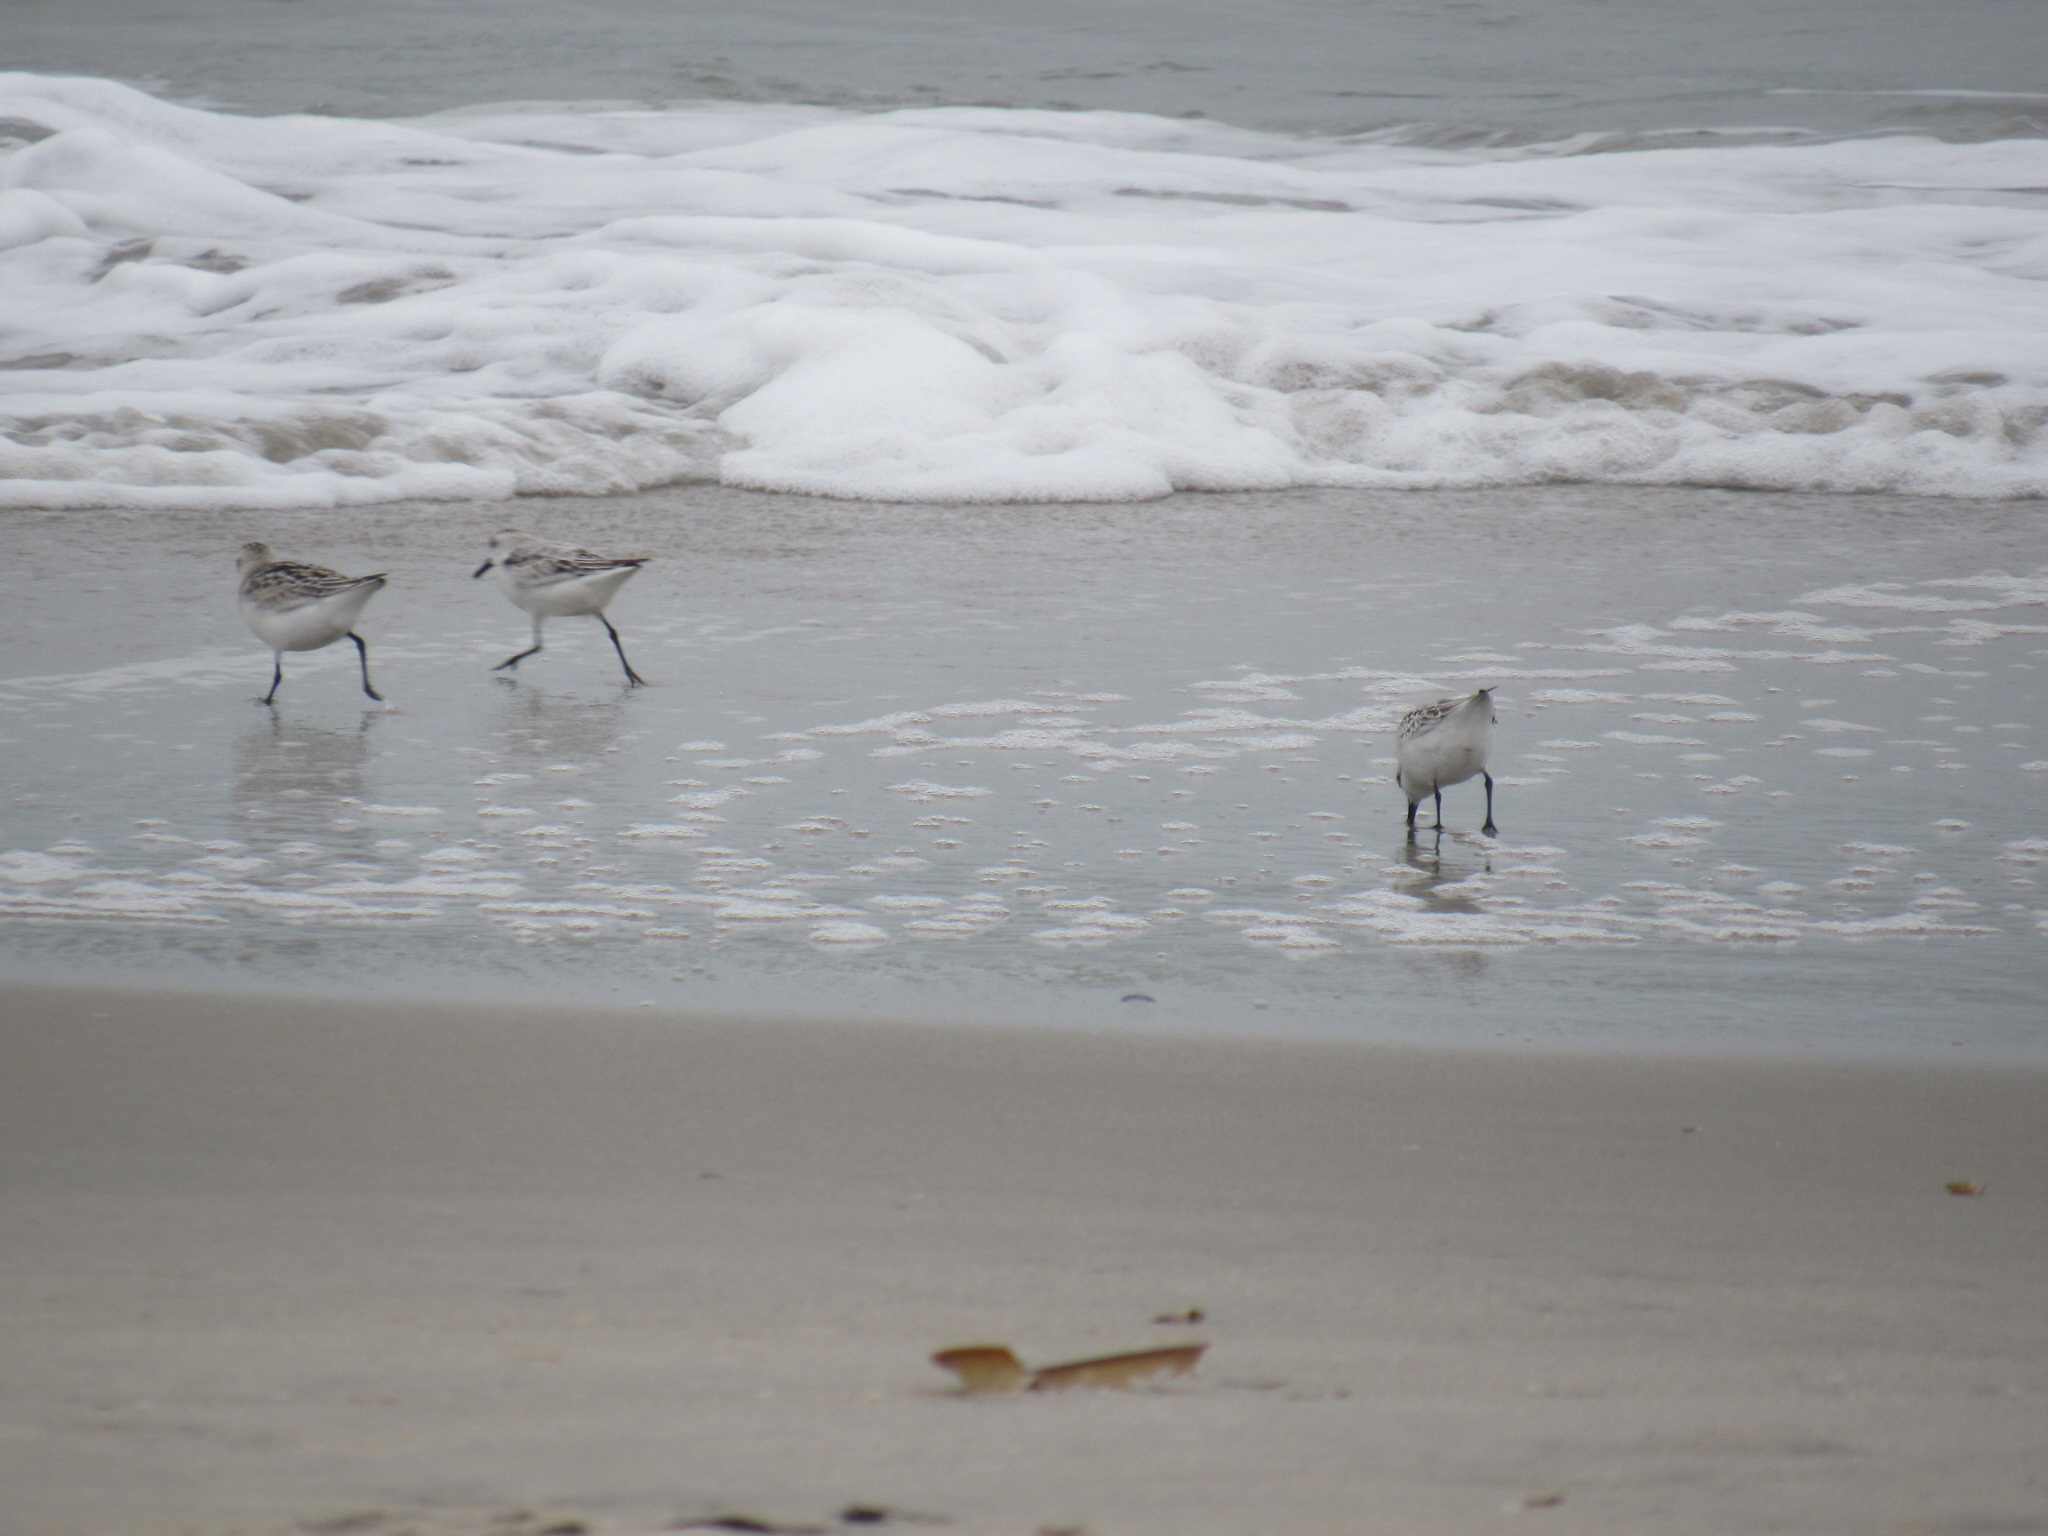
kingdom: Animalia
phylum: Chordata
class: Aves
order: Charadriiformes
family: Scolopacidae
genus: Calidris
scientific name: Calidris alba
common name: Sanderling
